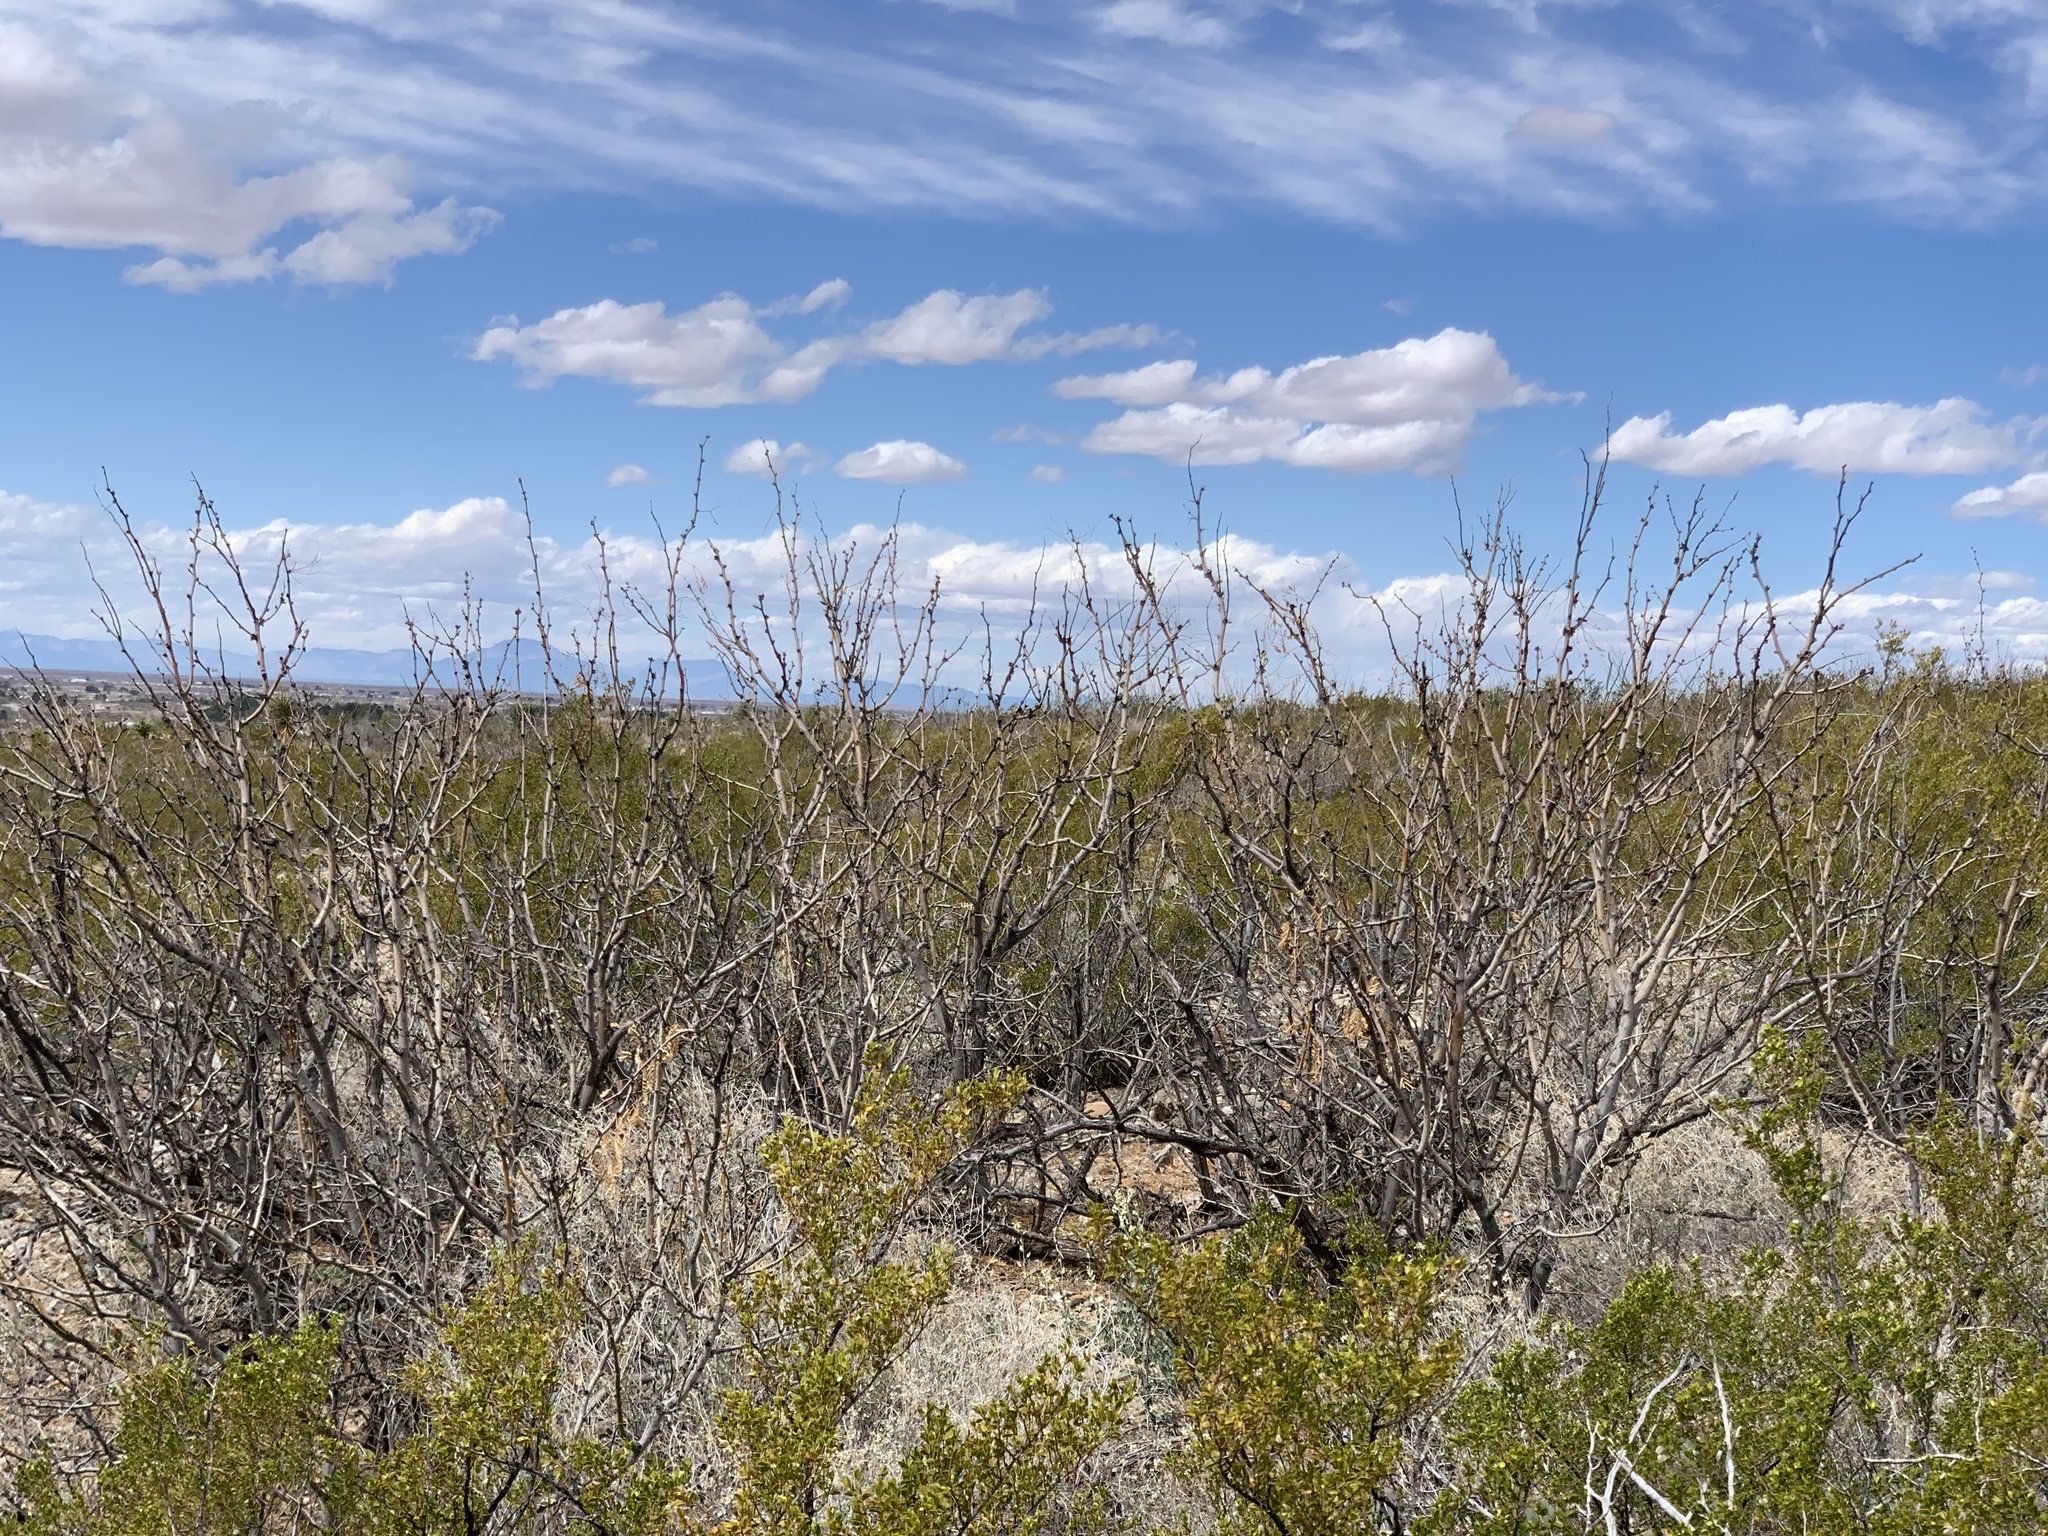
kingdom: Plantae
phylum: Tracheophyta
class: Magnoliopsida
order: Fabales
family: Fabaceae
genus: Prosopis
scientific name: Prosopis glandulosa
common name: Honey mesquite
